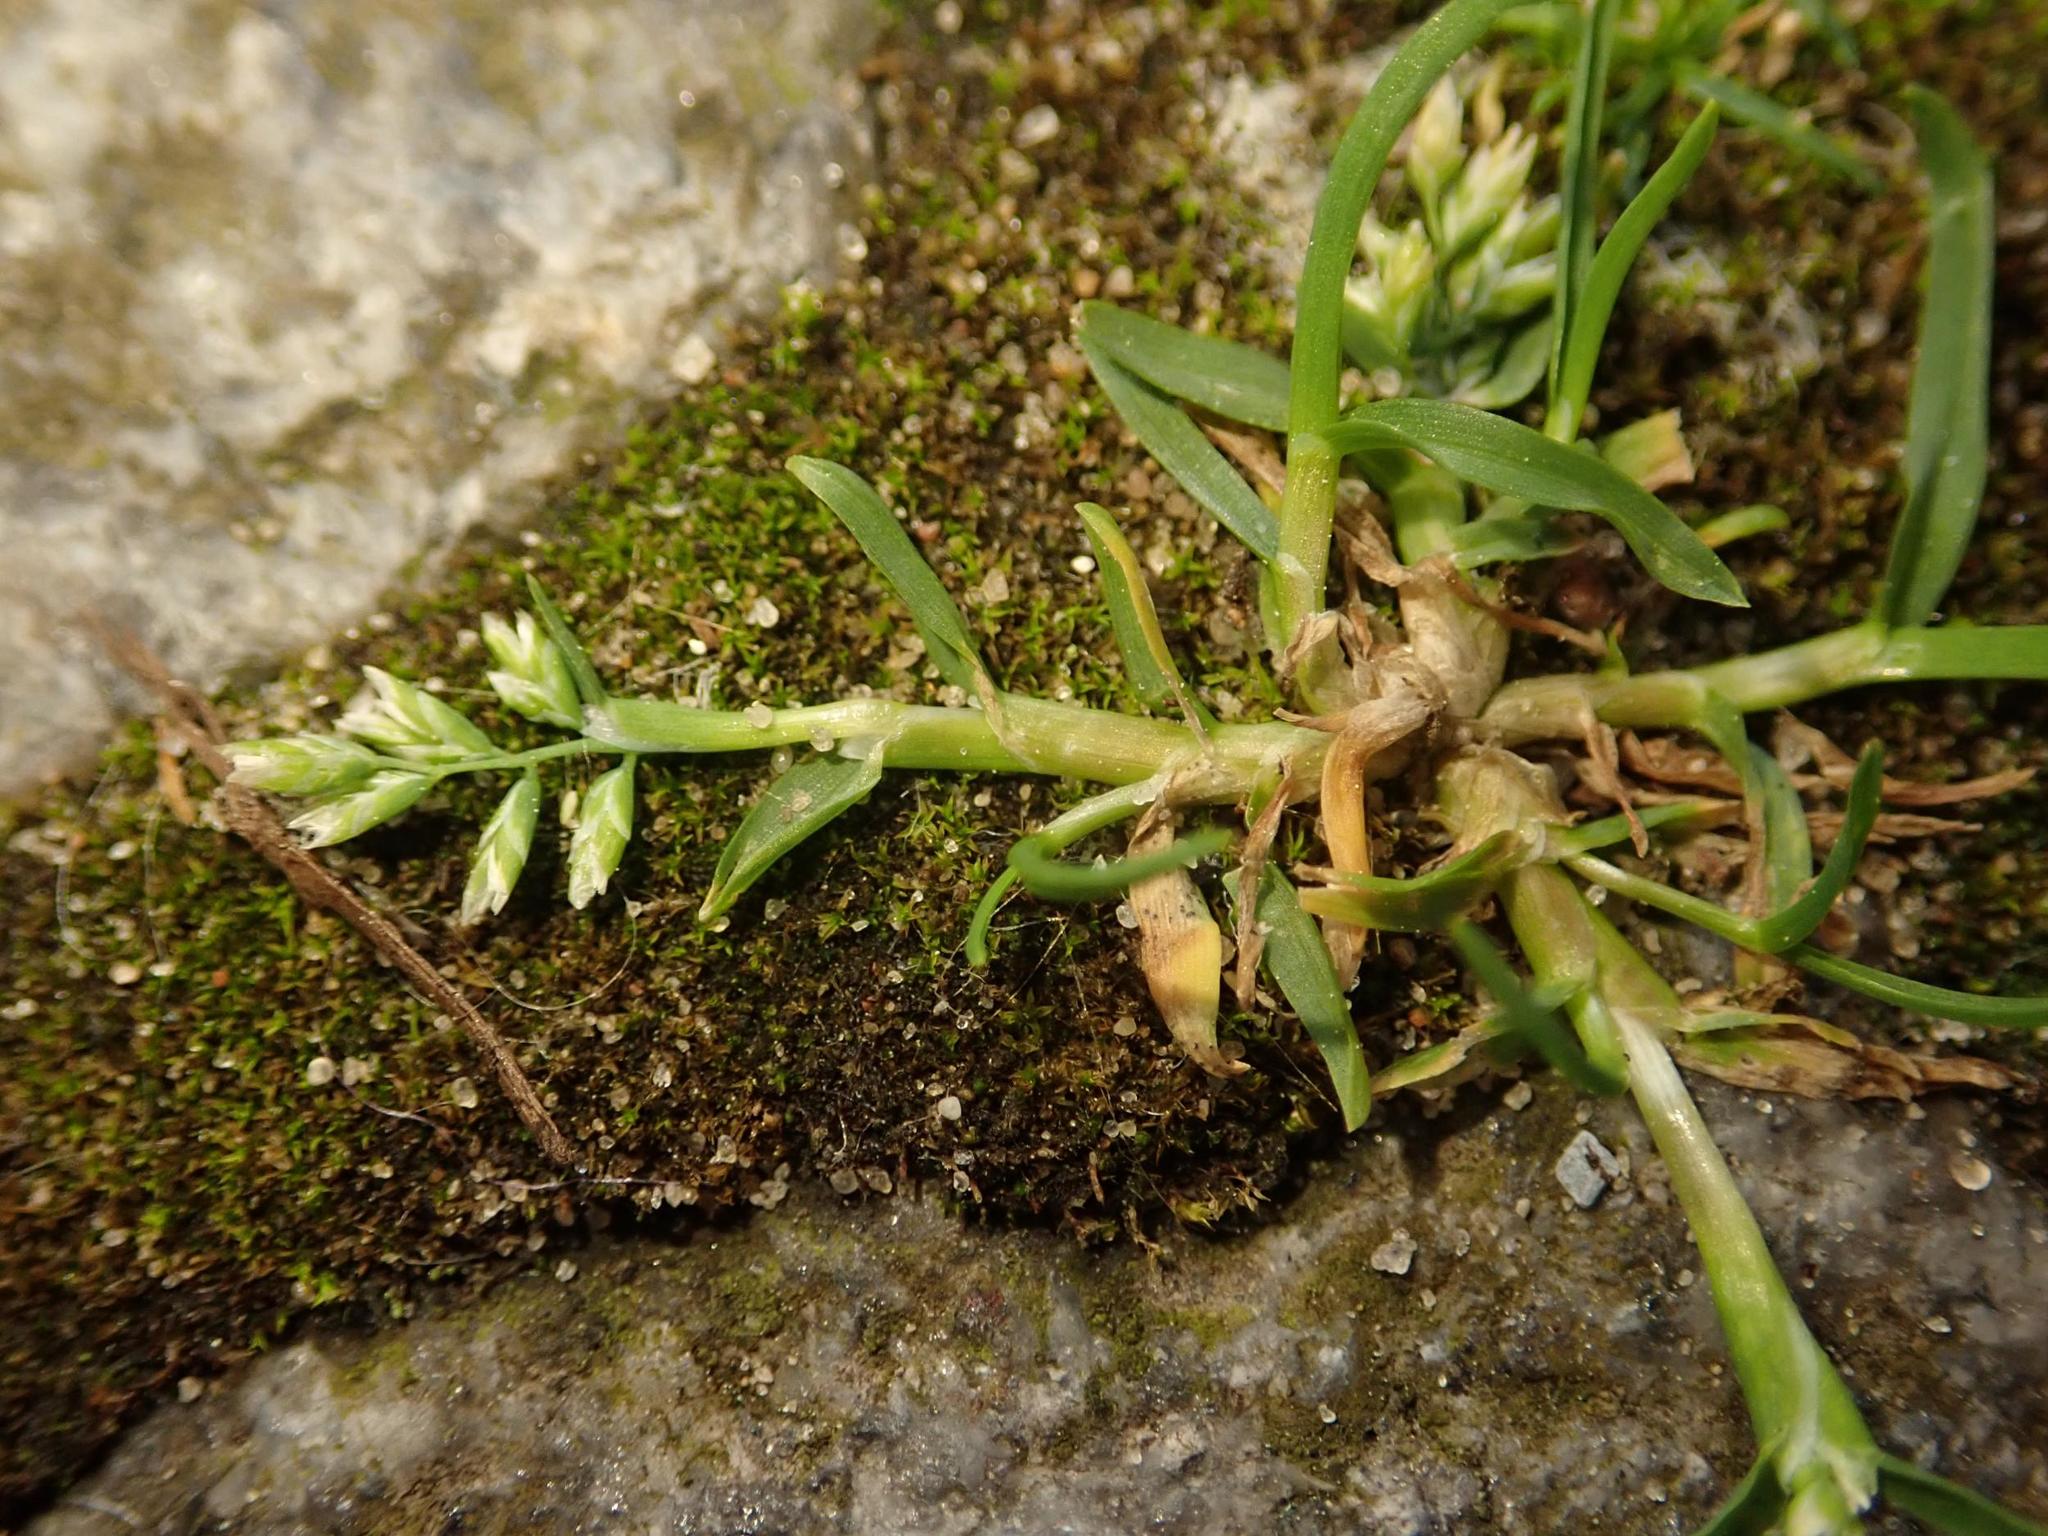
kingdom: Plantae
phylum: Tracheophyta
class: Liliopsida
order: Poales
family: Poaceae
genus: Poa
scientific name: Poa annua
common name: Annual bluegrass
